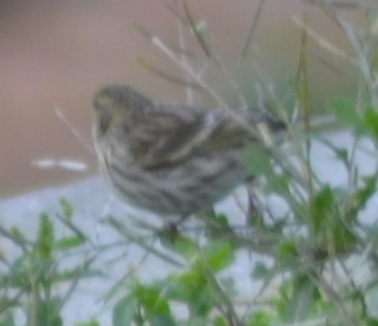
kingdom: Animalia
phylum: Chordata
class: Aves
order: Passeriformes
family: Fringillidae
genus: Serinus
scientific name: Serinus serinus
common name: European serin
